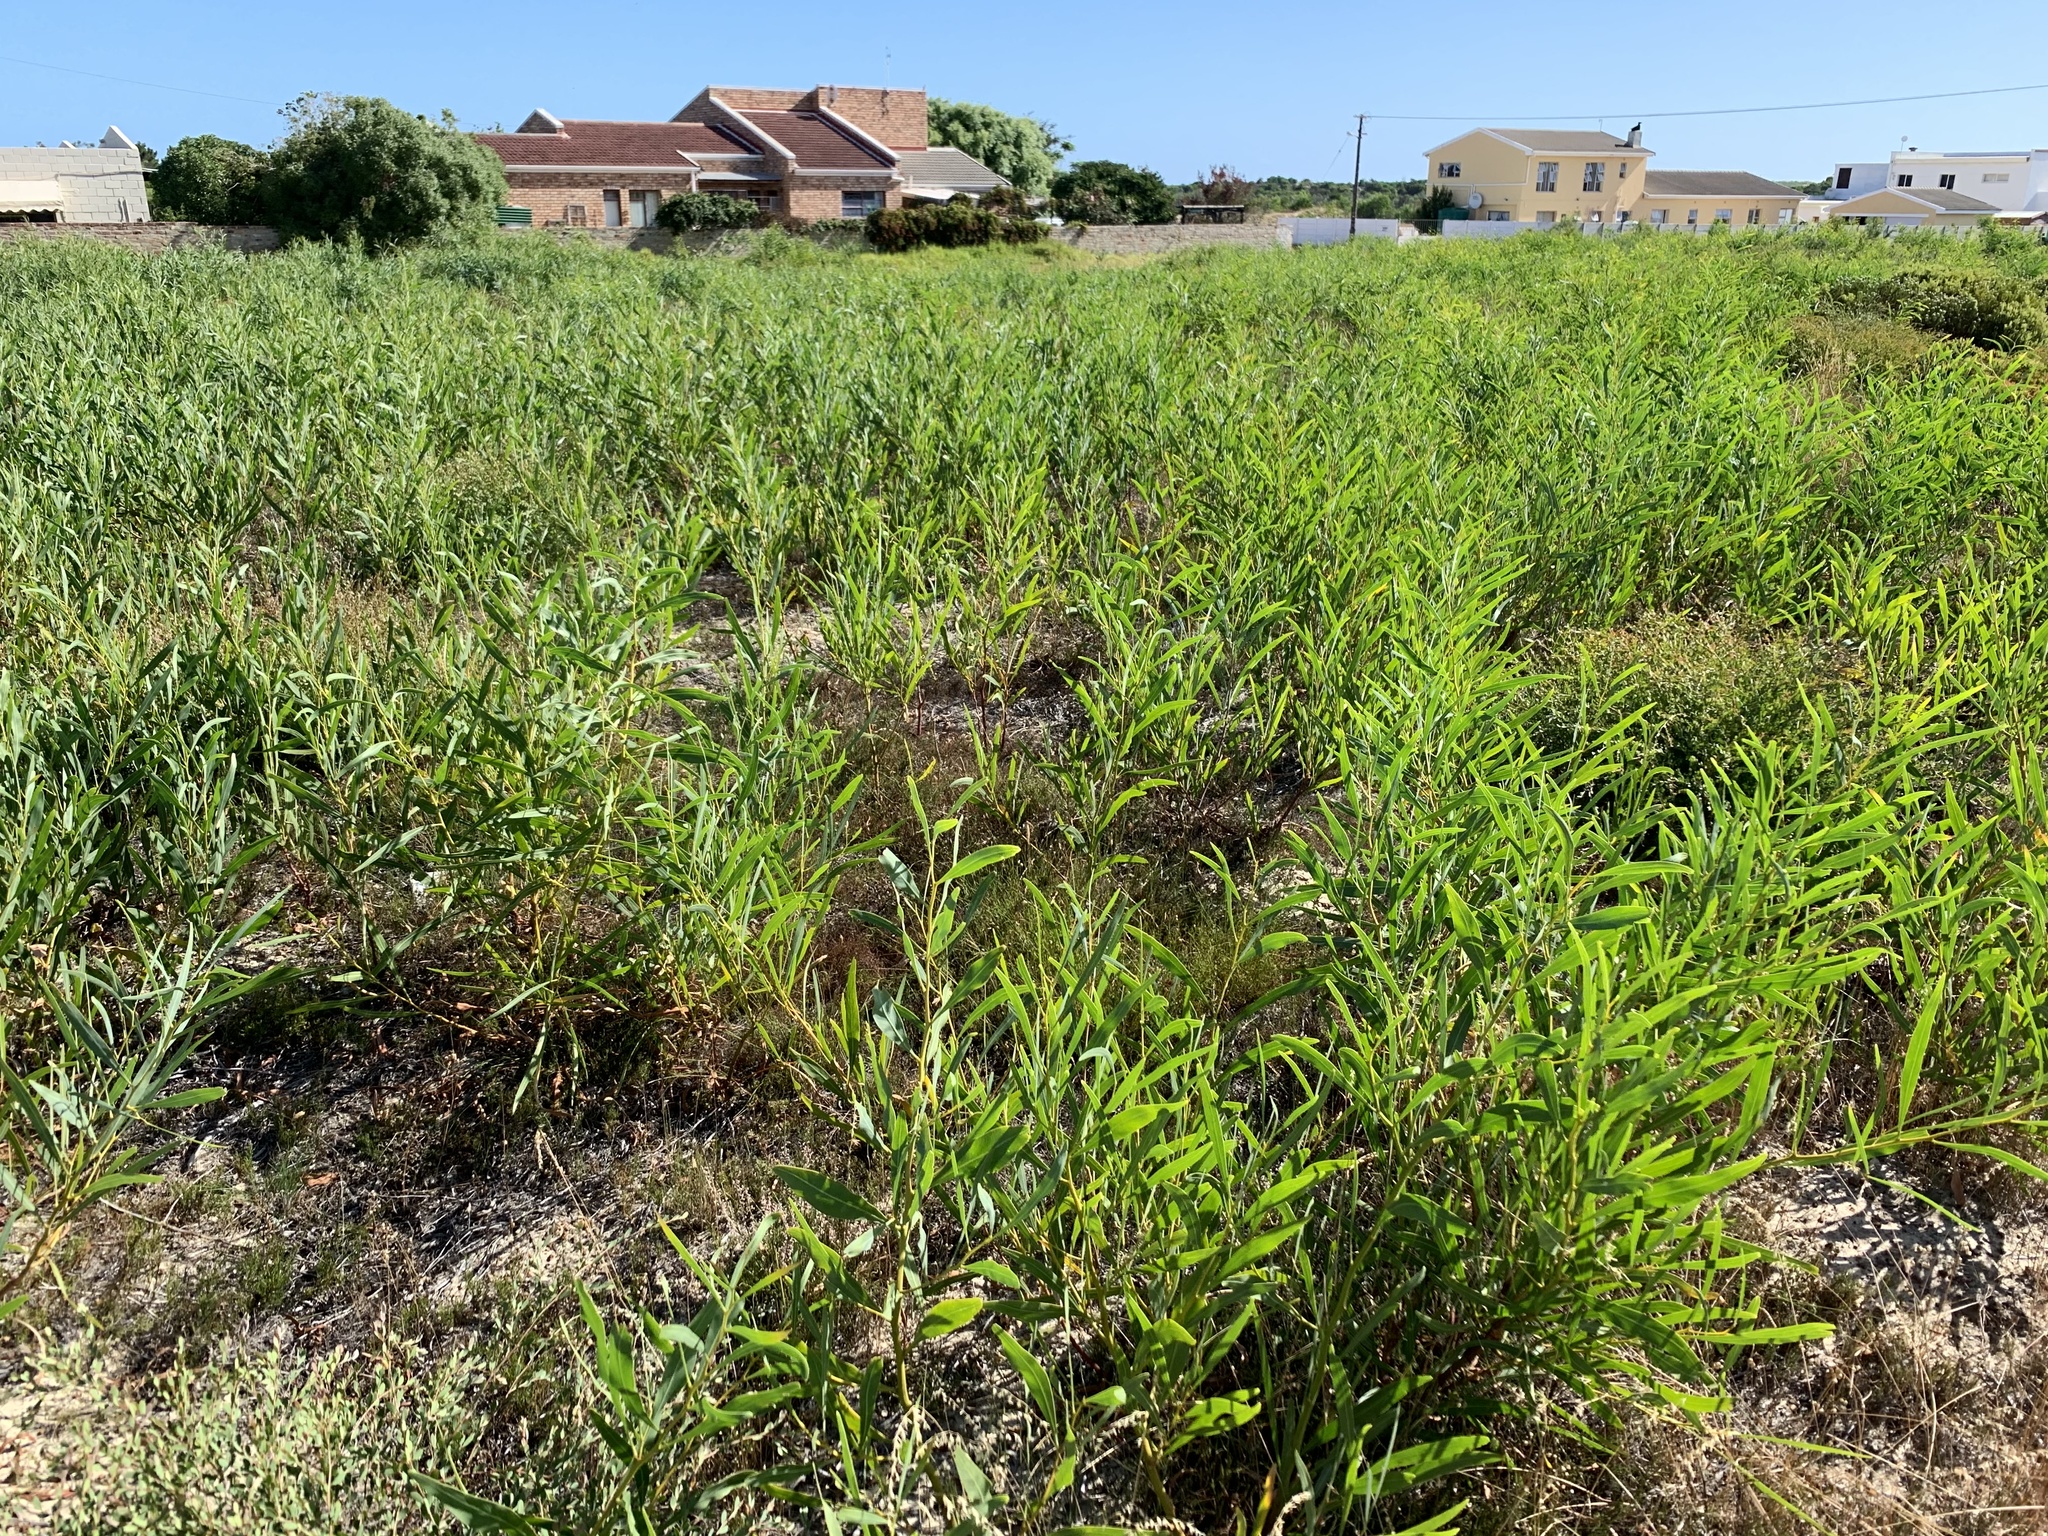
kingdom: Plantae
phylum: Tracheophyta
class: Magnoliopsida
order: Fabales
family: Fabaceae
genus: Acacia
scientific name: Acacia saligna
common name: Orange wattle
